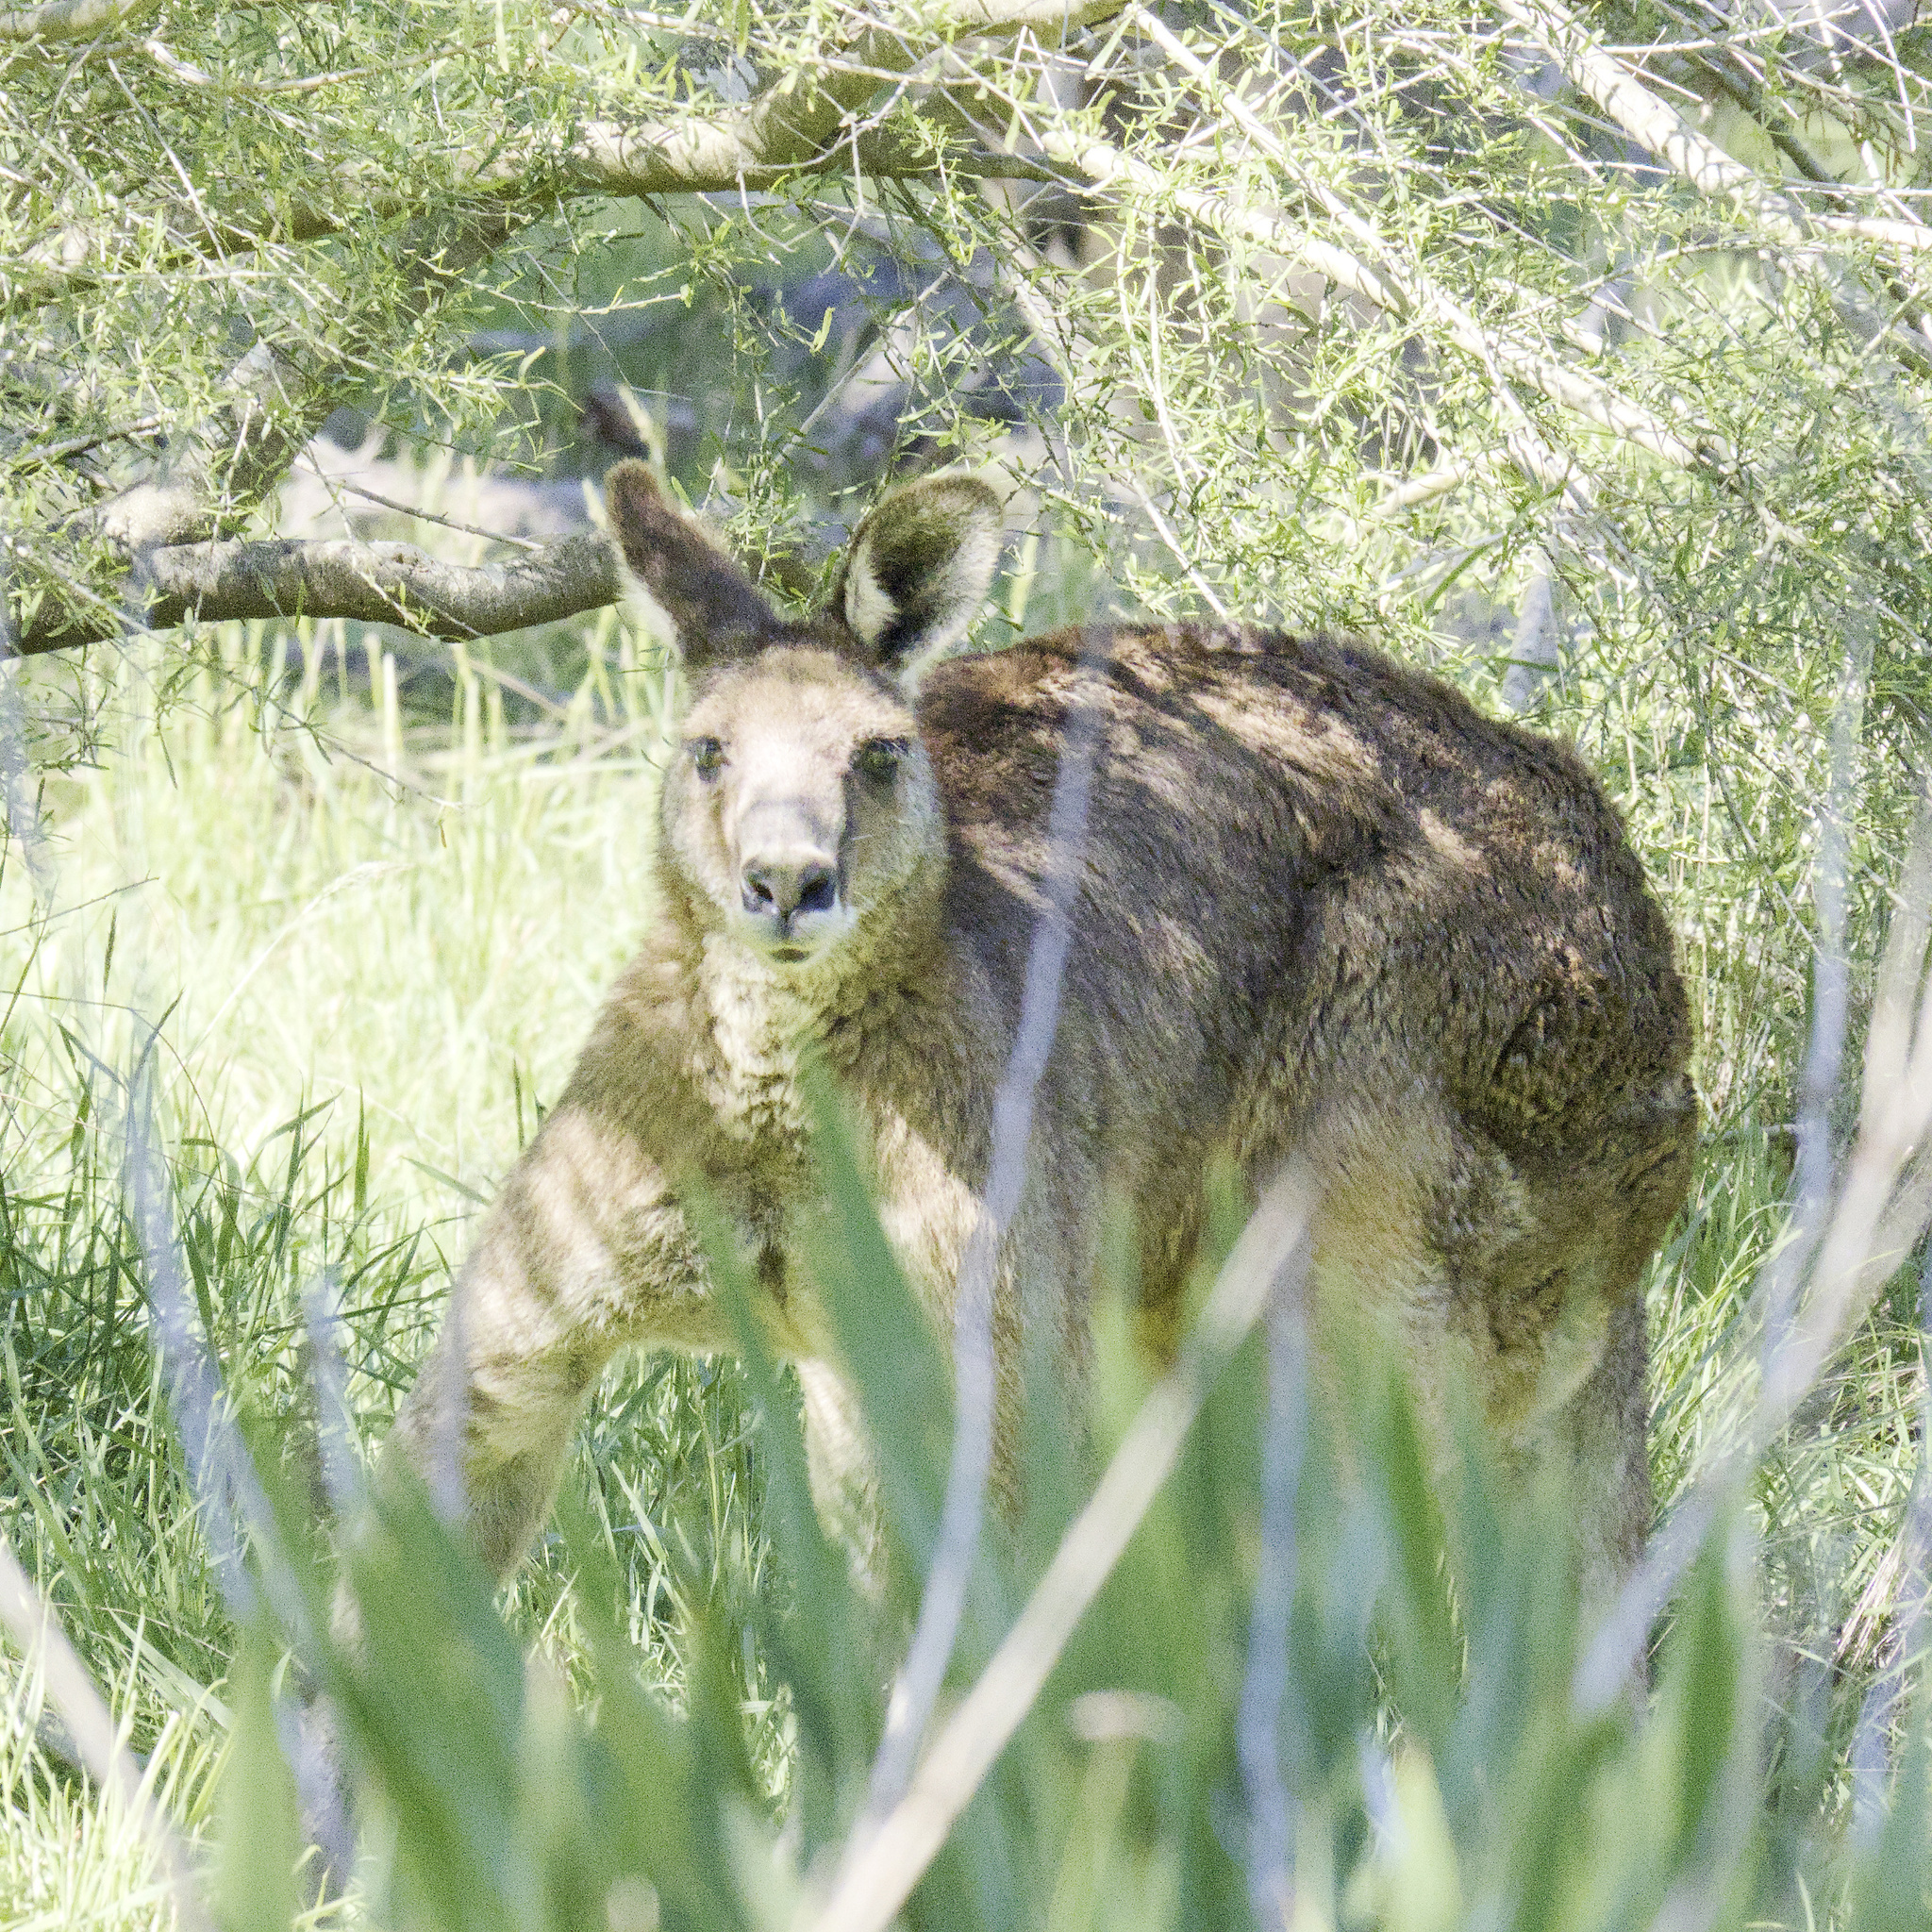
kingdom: Animalia
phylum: Chordata
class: Mammalia
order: Diprotodontia
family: Macropodidae
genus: Macropus
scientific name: Macropus giganteus
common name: Eastern grey kangaroo
